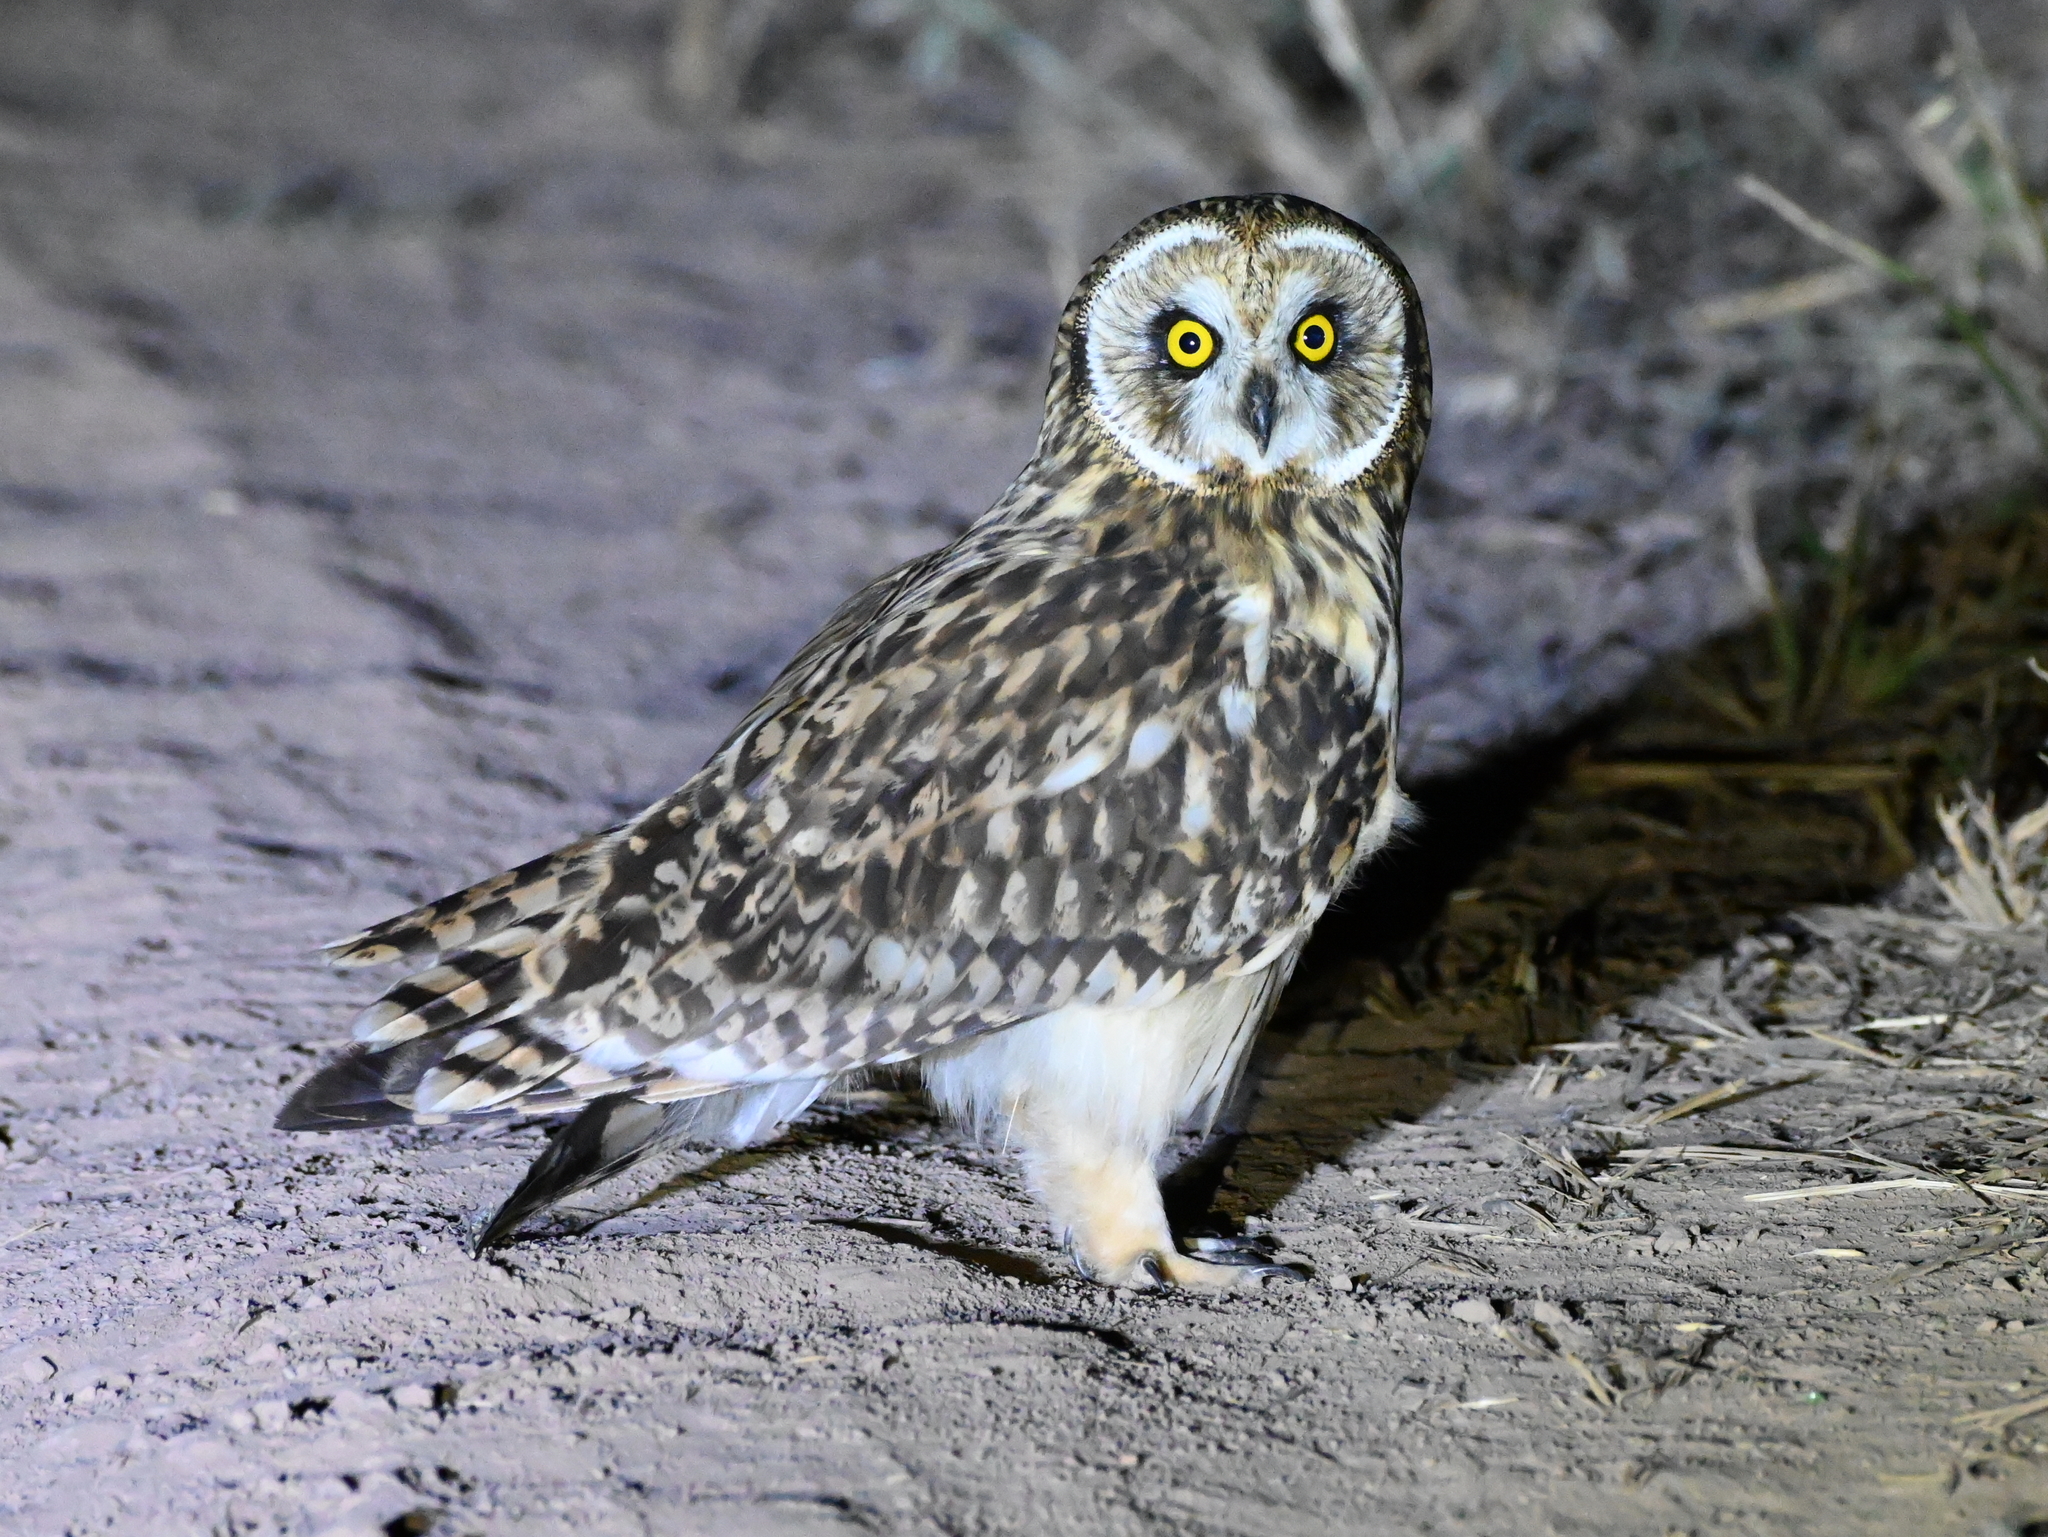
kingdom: Animalia
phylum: Chordata
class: Aves
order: Strigiformes
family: Strigidae
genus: Asio
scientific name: Asio flammeus
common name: Short-eared owl
